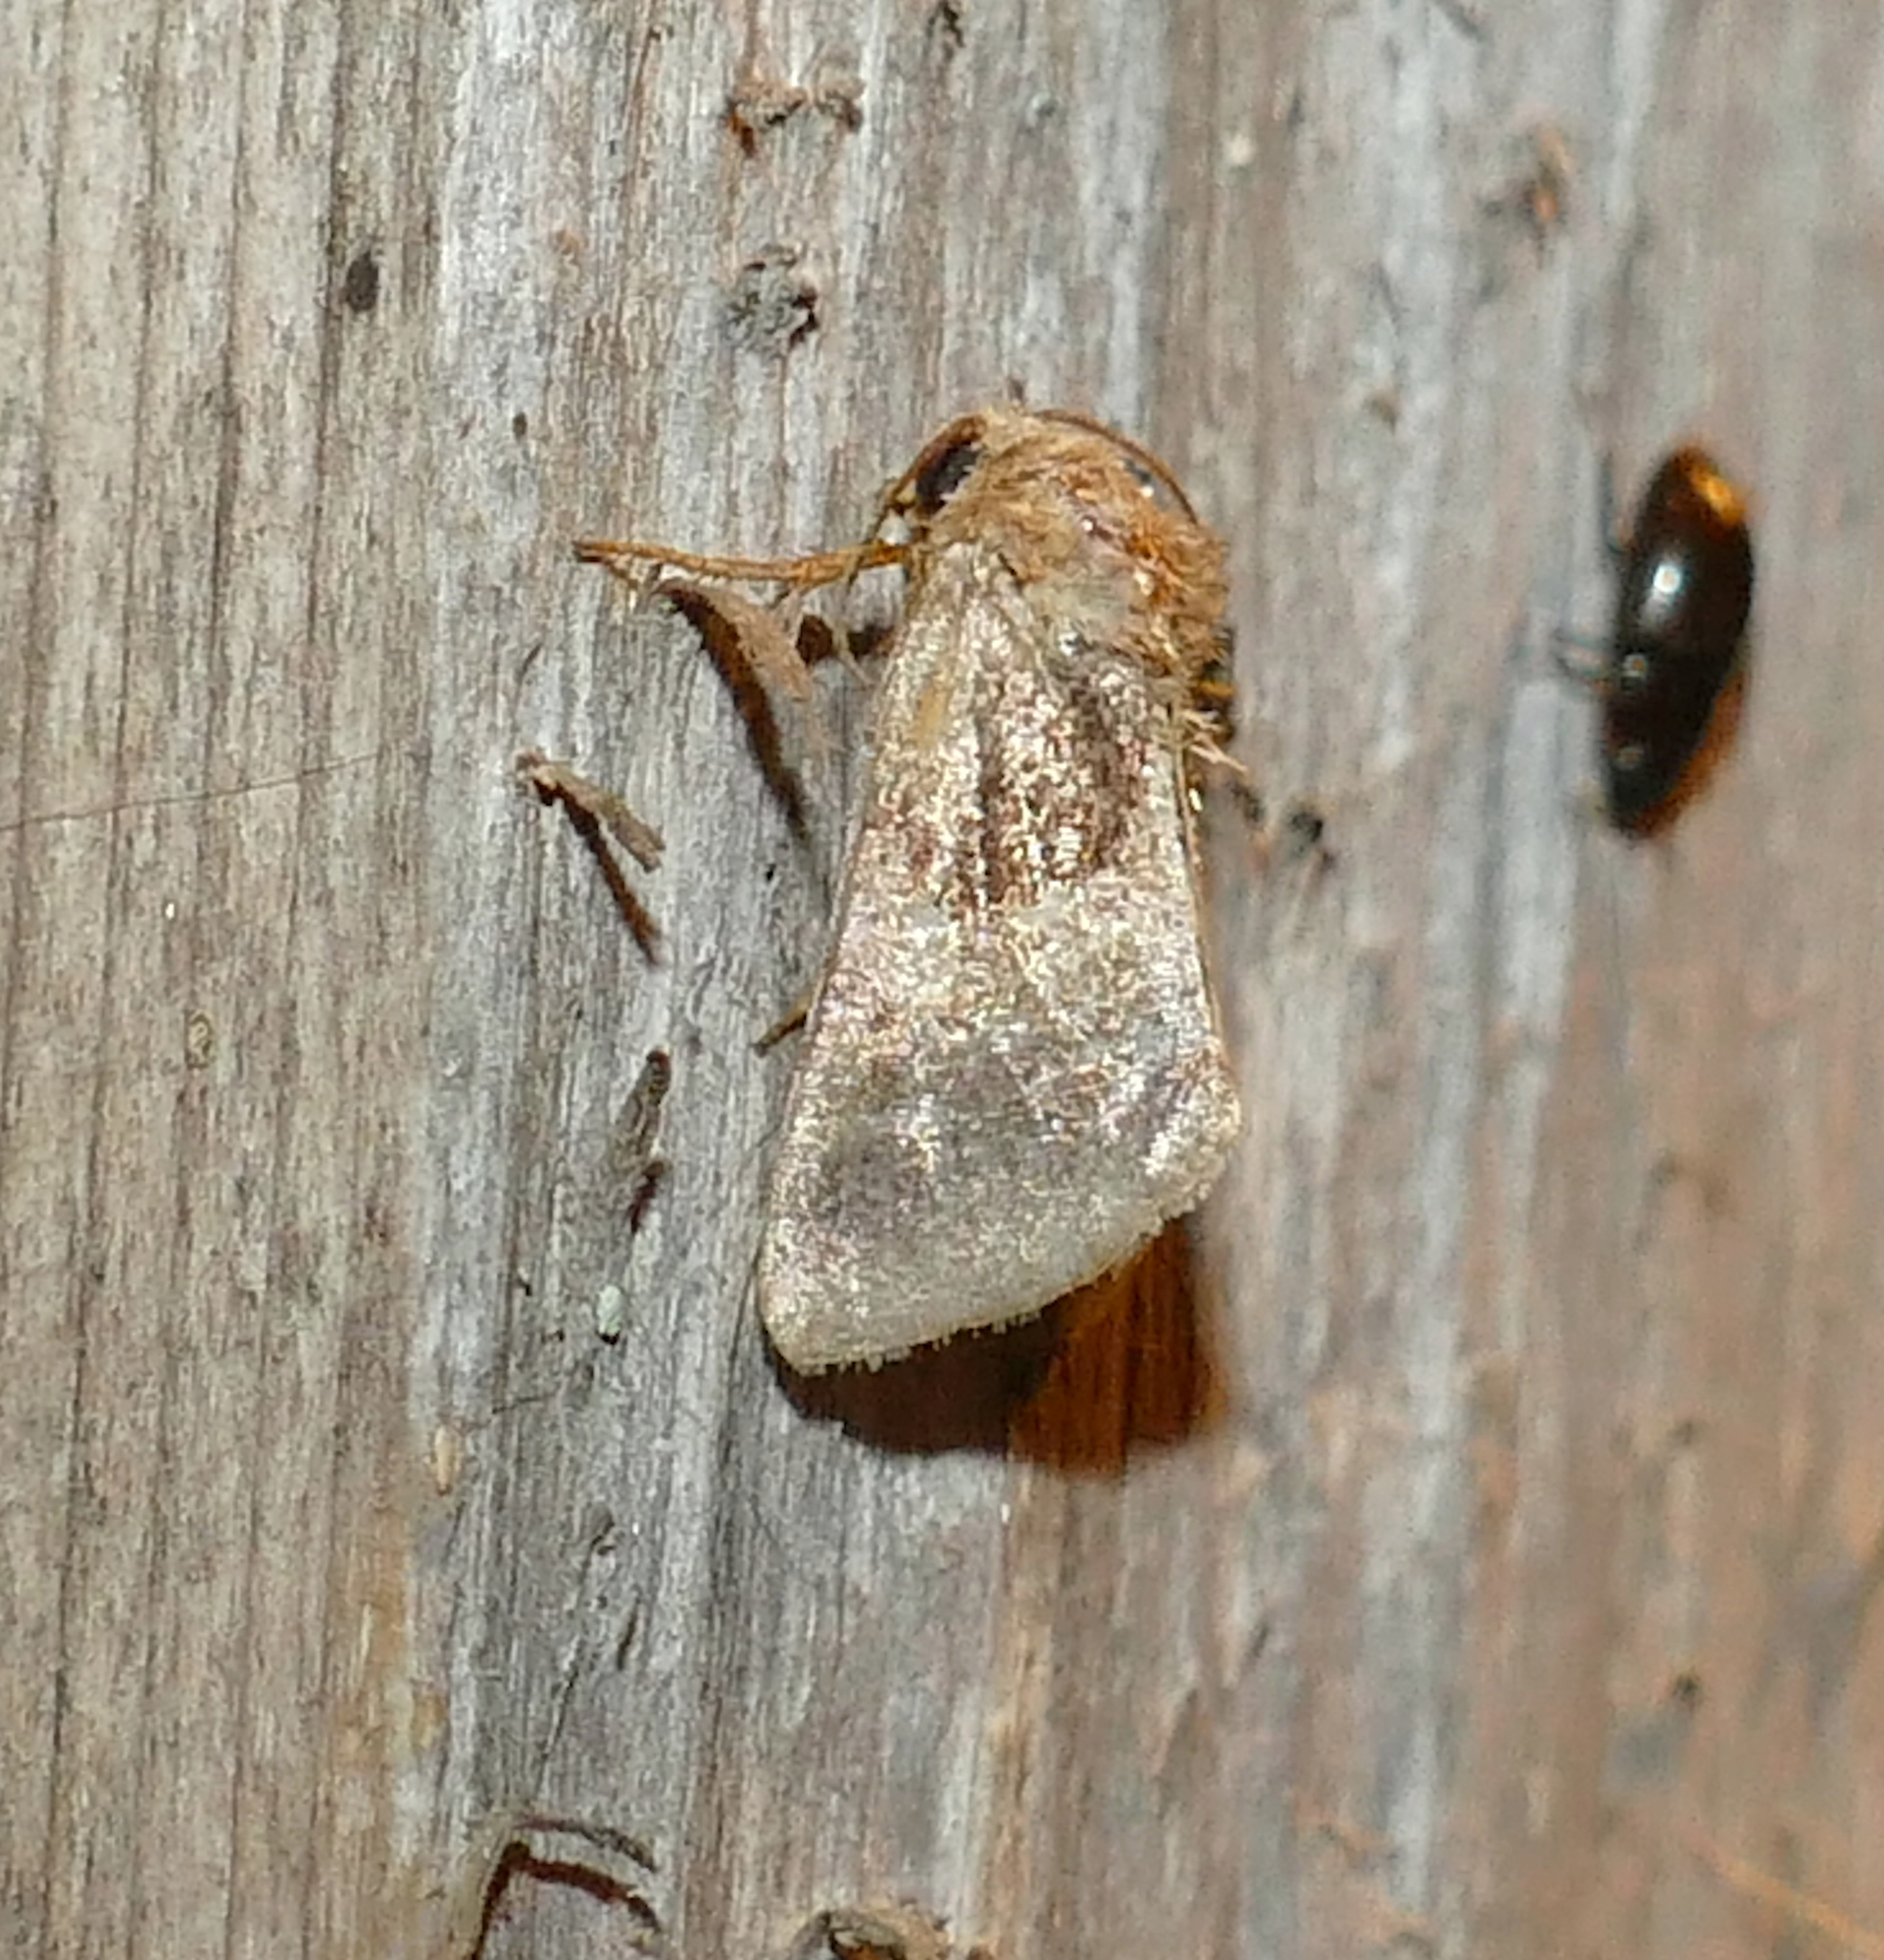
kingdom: Animalia
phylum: Arthropoda
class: Insecta
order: Lepidoptera
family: Noctuidae
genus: Schinia
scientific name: Schinia arcigera
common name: Arcigera flower moth
